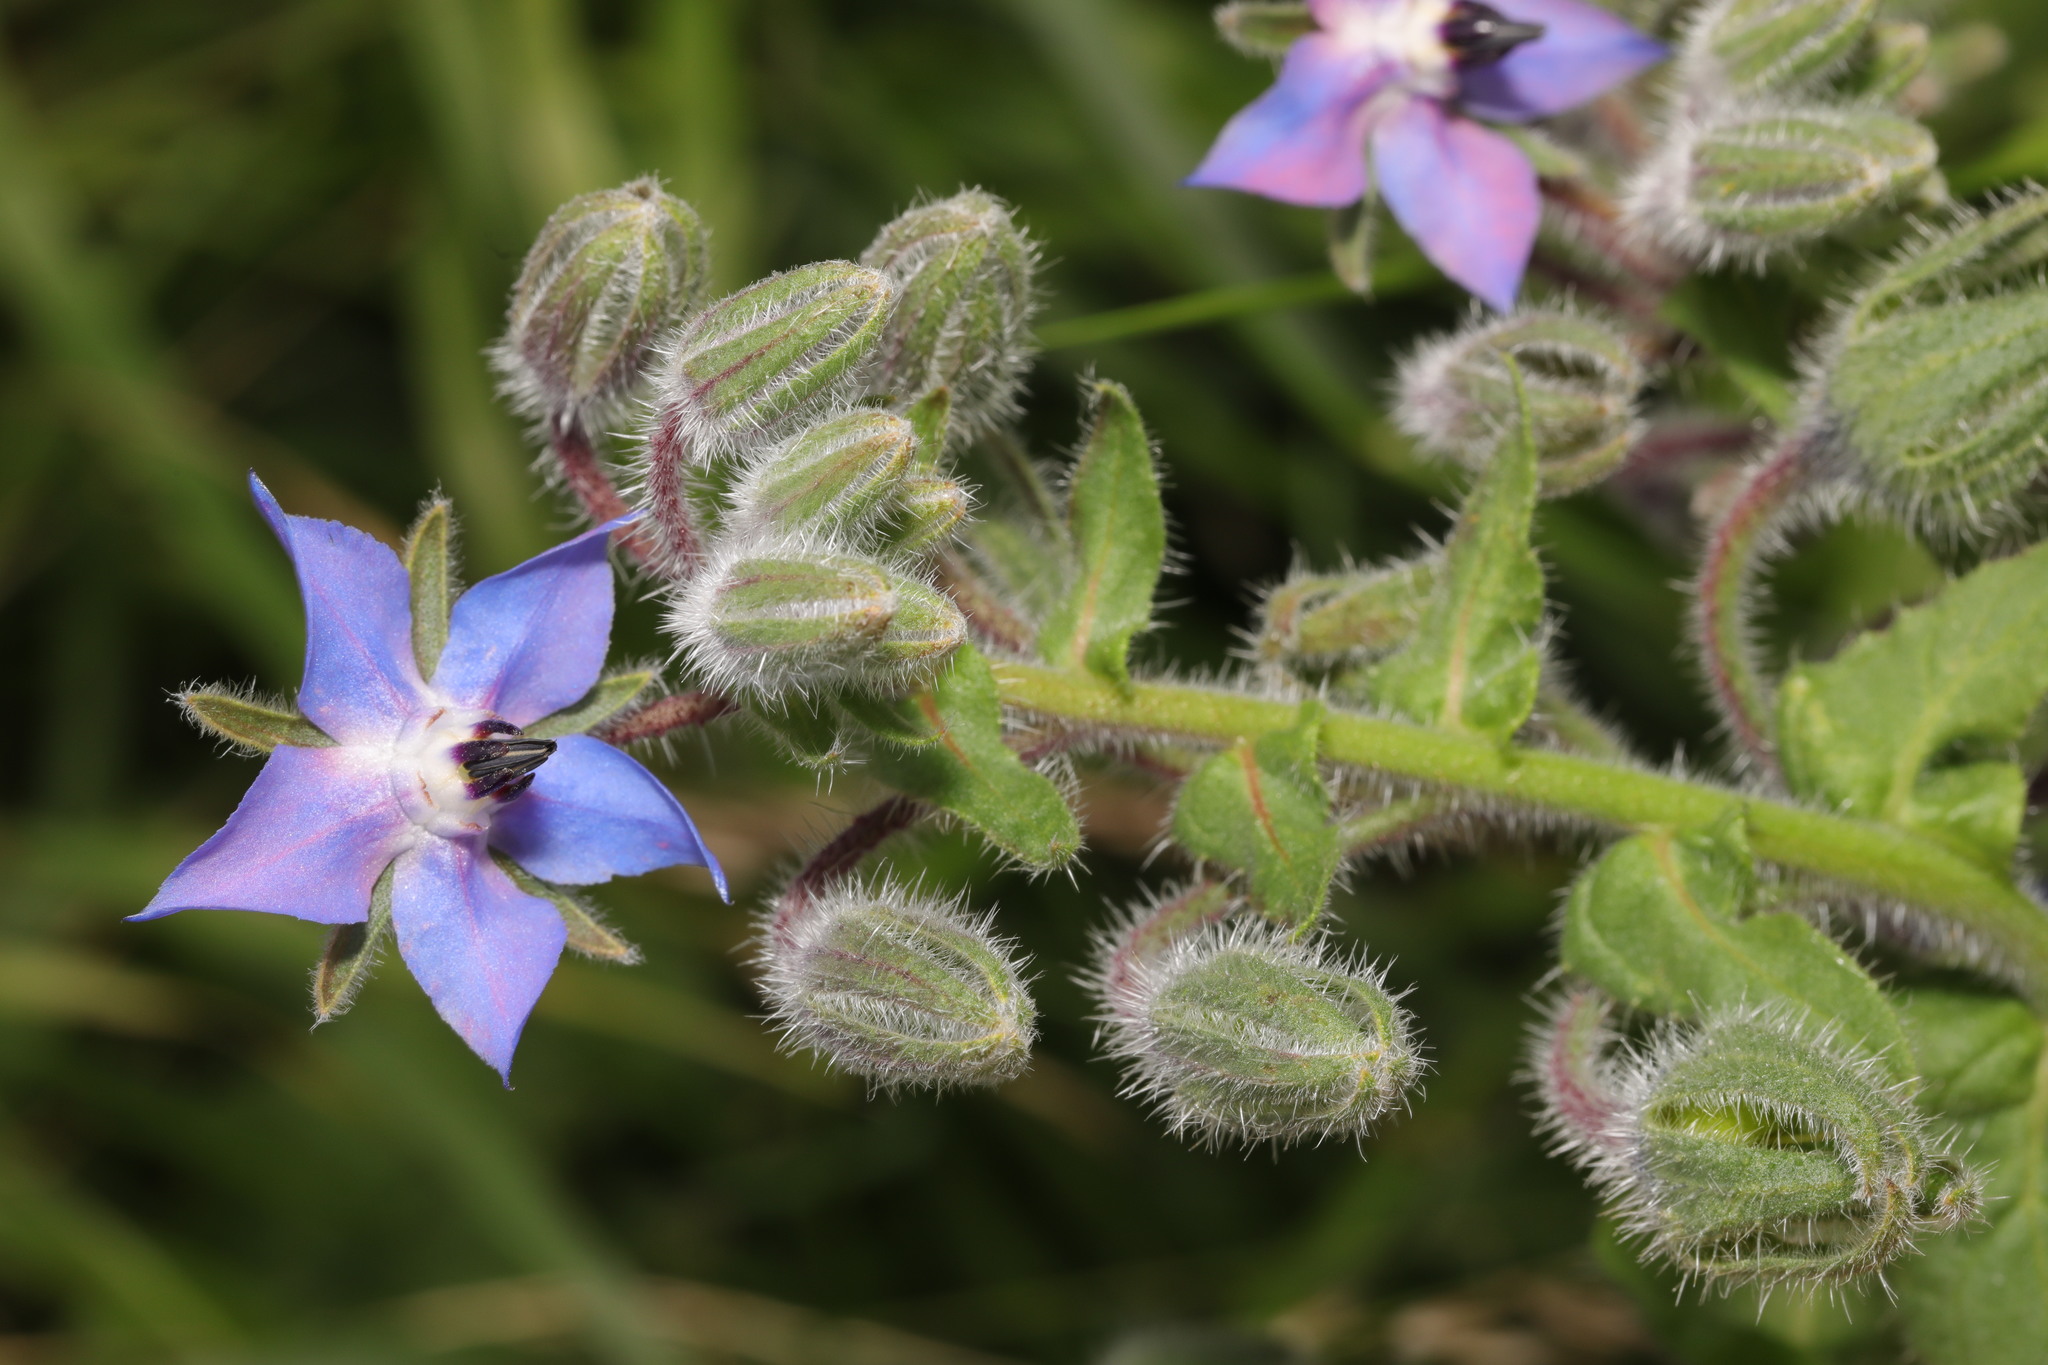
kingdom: Plantae
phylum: Tracheophyta
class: Magnoliopsida
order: Boraginales
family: Boraginaceae
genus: Borago
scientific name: Borago officinalis
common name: Borage
